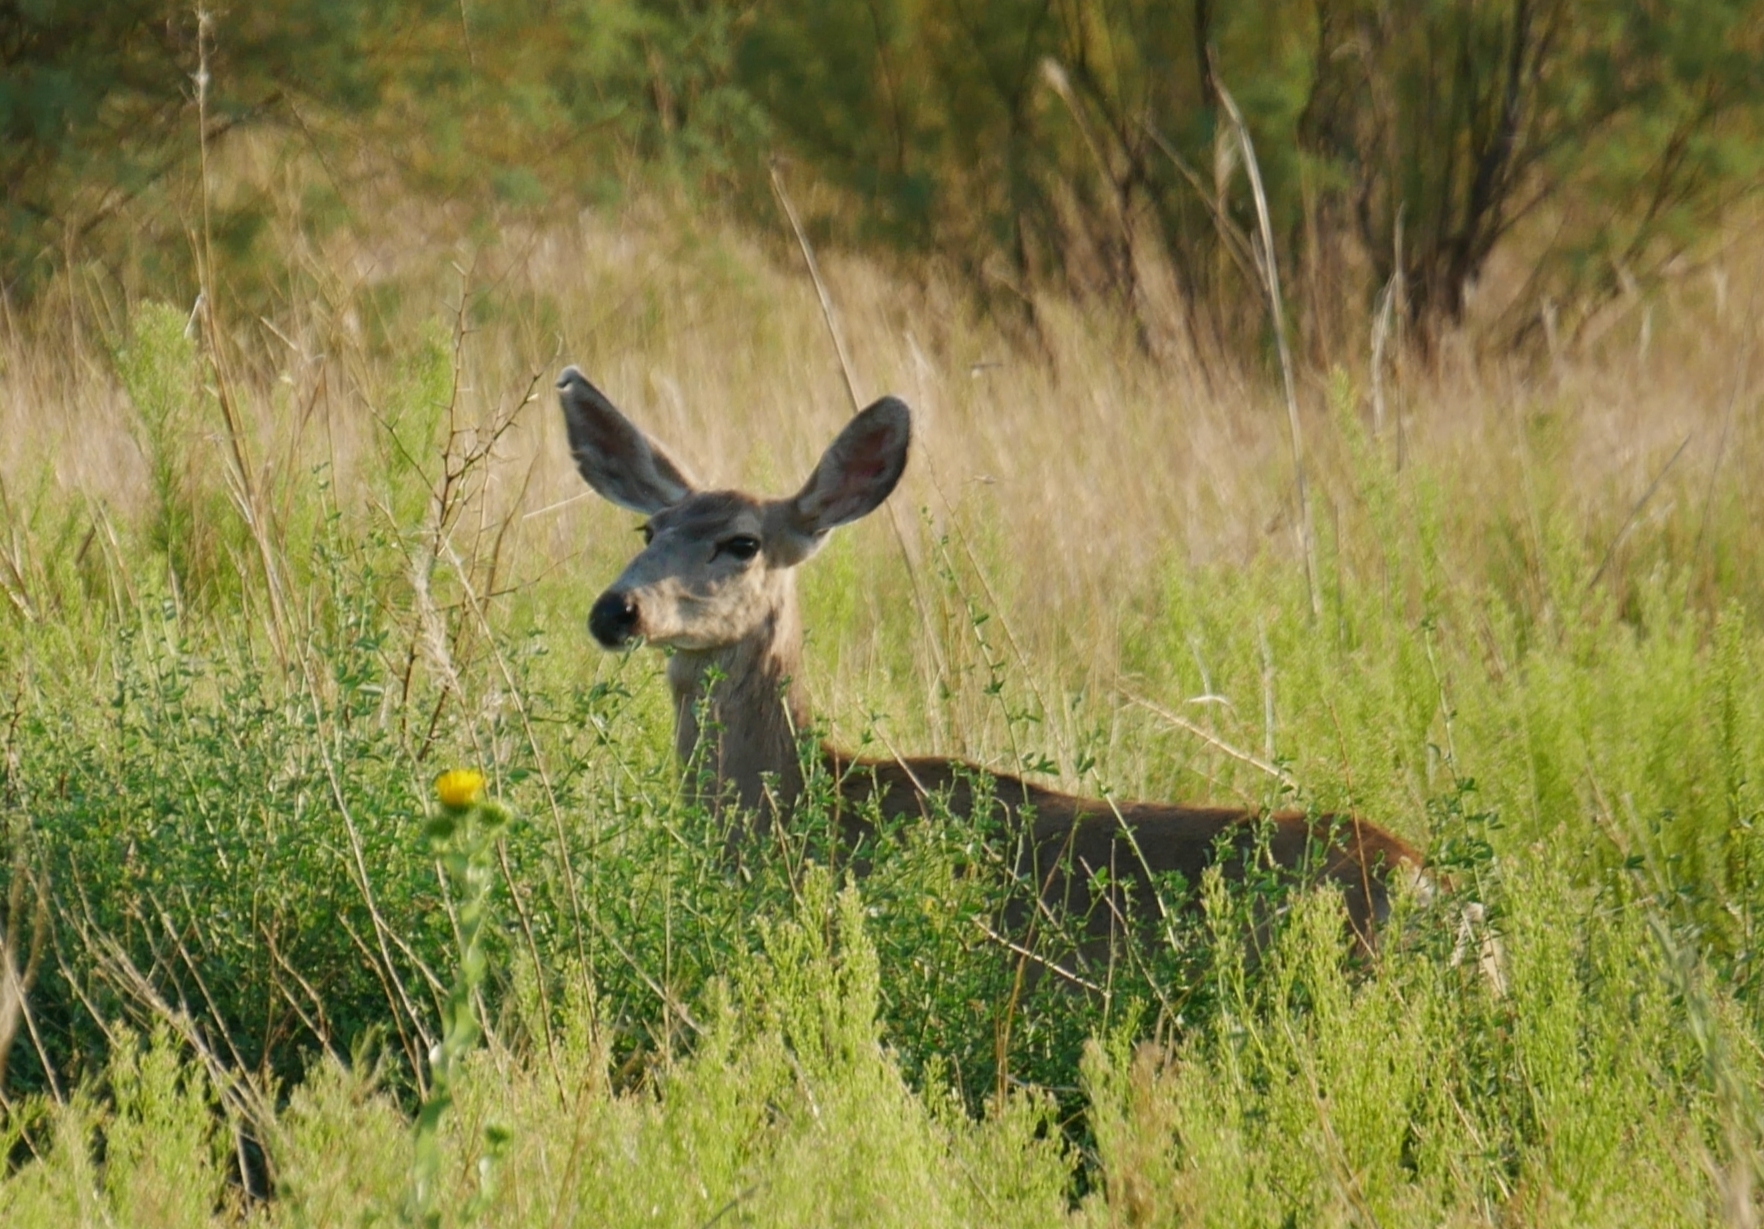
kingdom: Animalia
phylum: Chordata
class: Mammalia
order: Artiodactyla
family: Cervidae
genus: Odocoileus
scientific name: Odocoileus hemionus
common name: Mule deer
